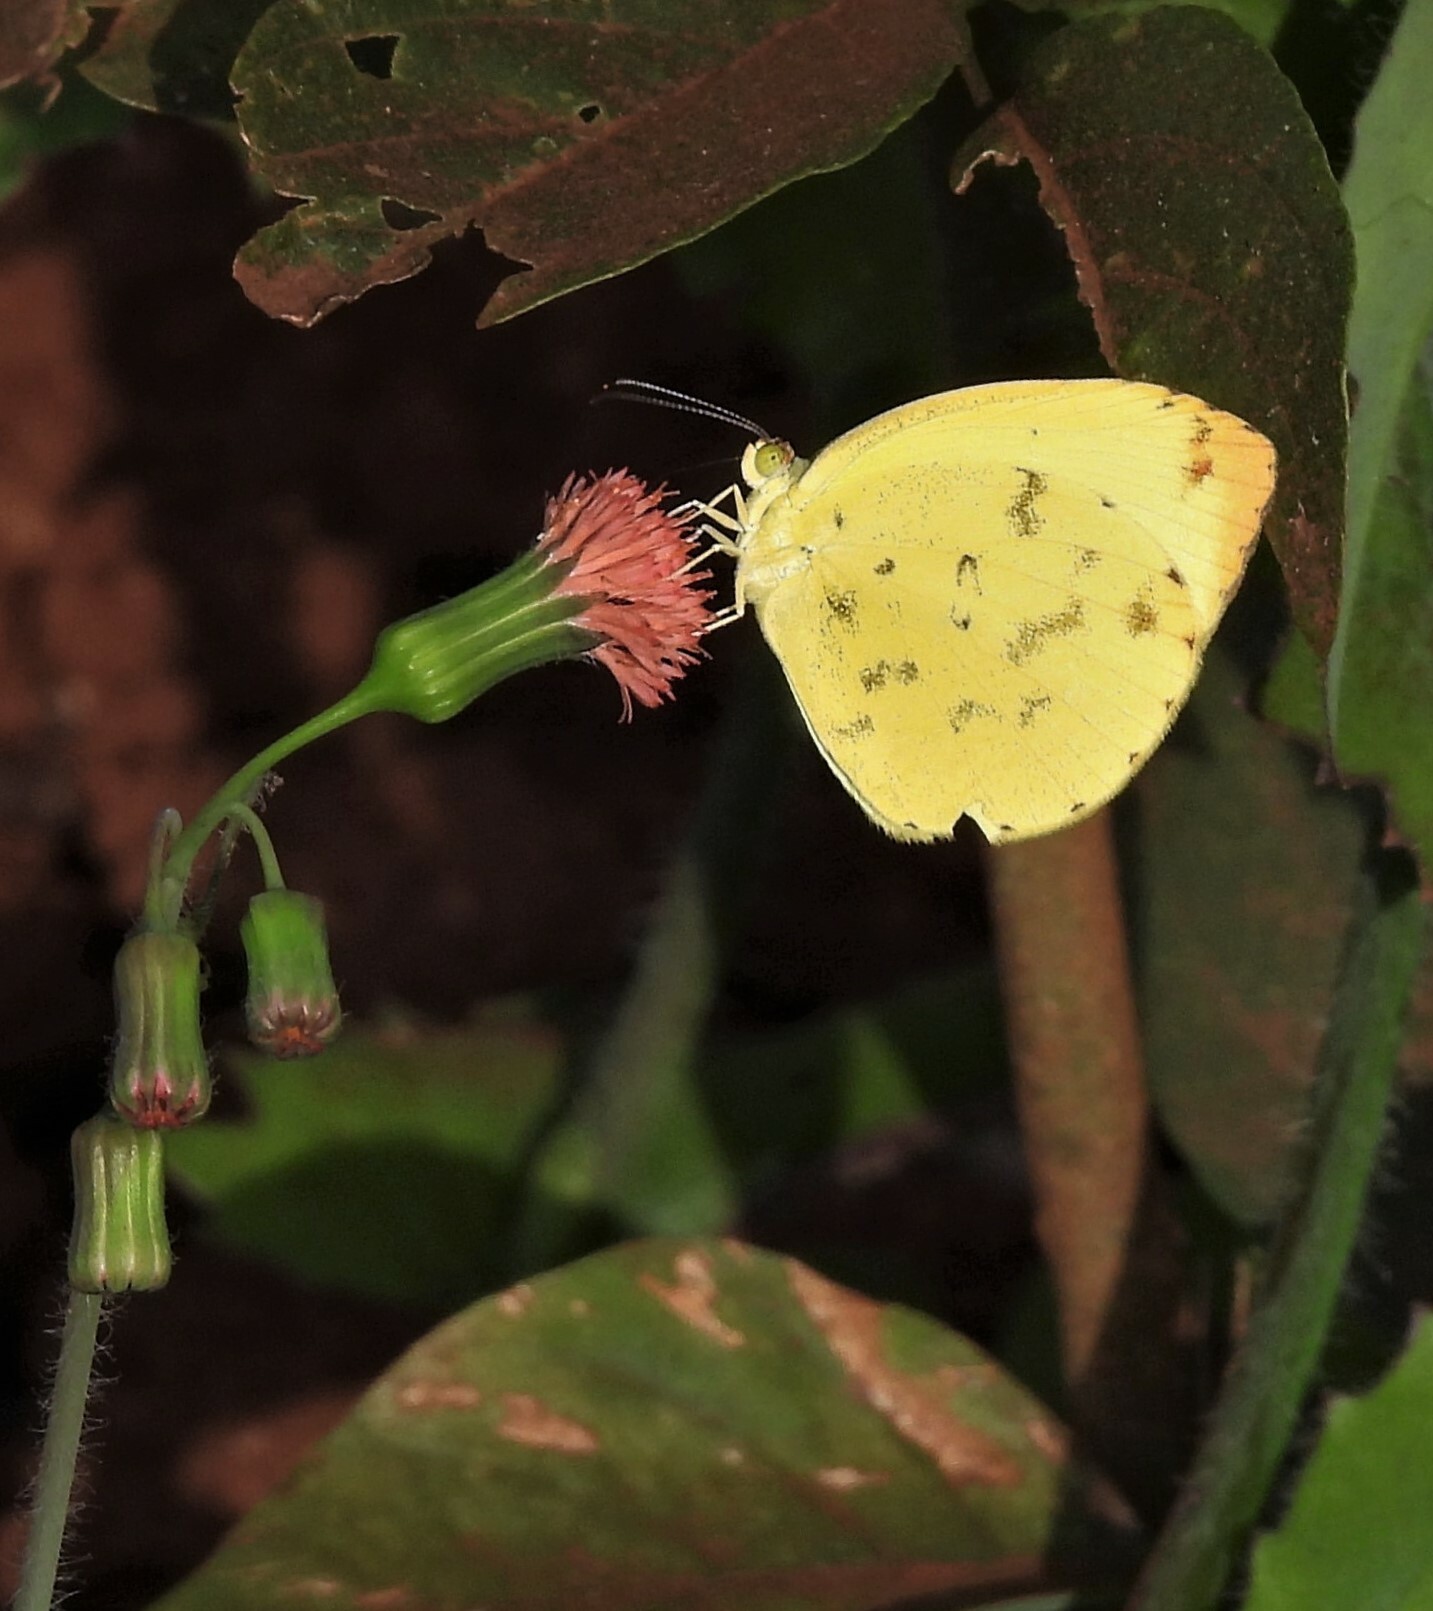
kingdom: Animalia
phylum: Arthropoda
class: Insecta
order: Lepidoptera
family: Pieridae
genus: Pyrisitia
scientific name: Pyrisitia leuce
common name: Hall's sulfur
